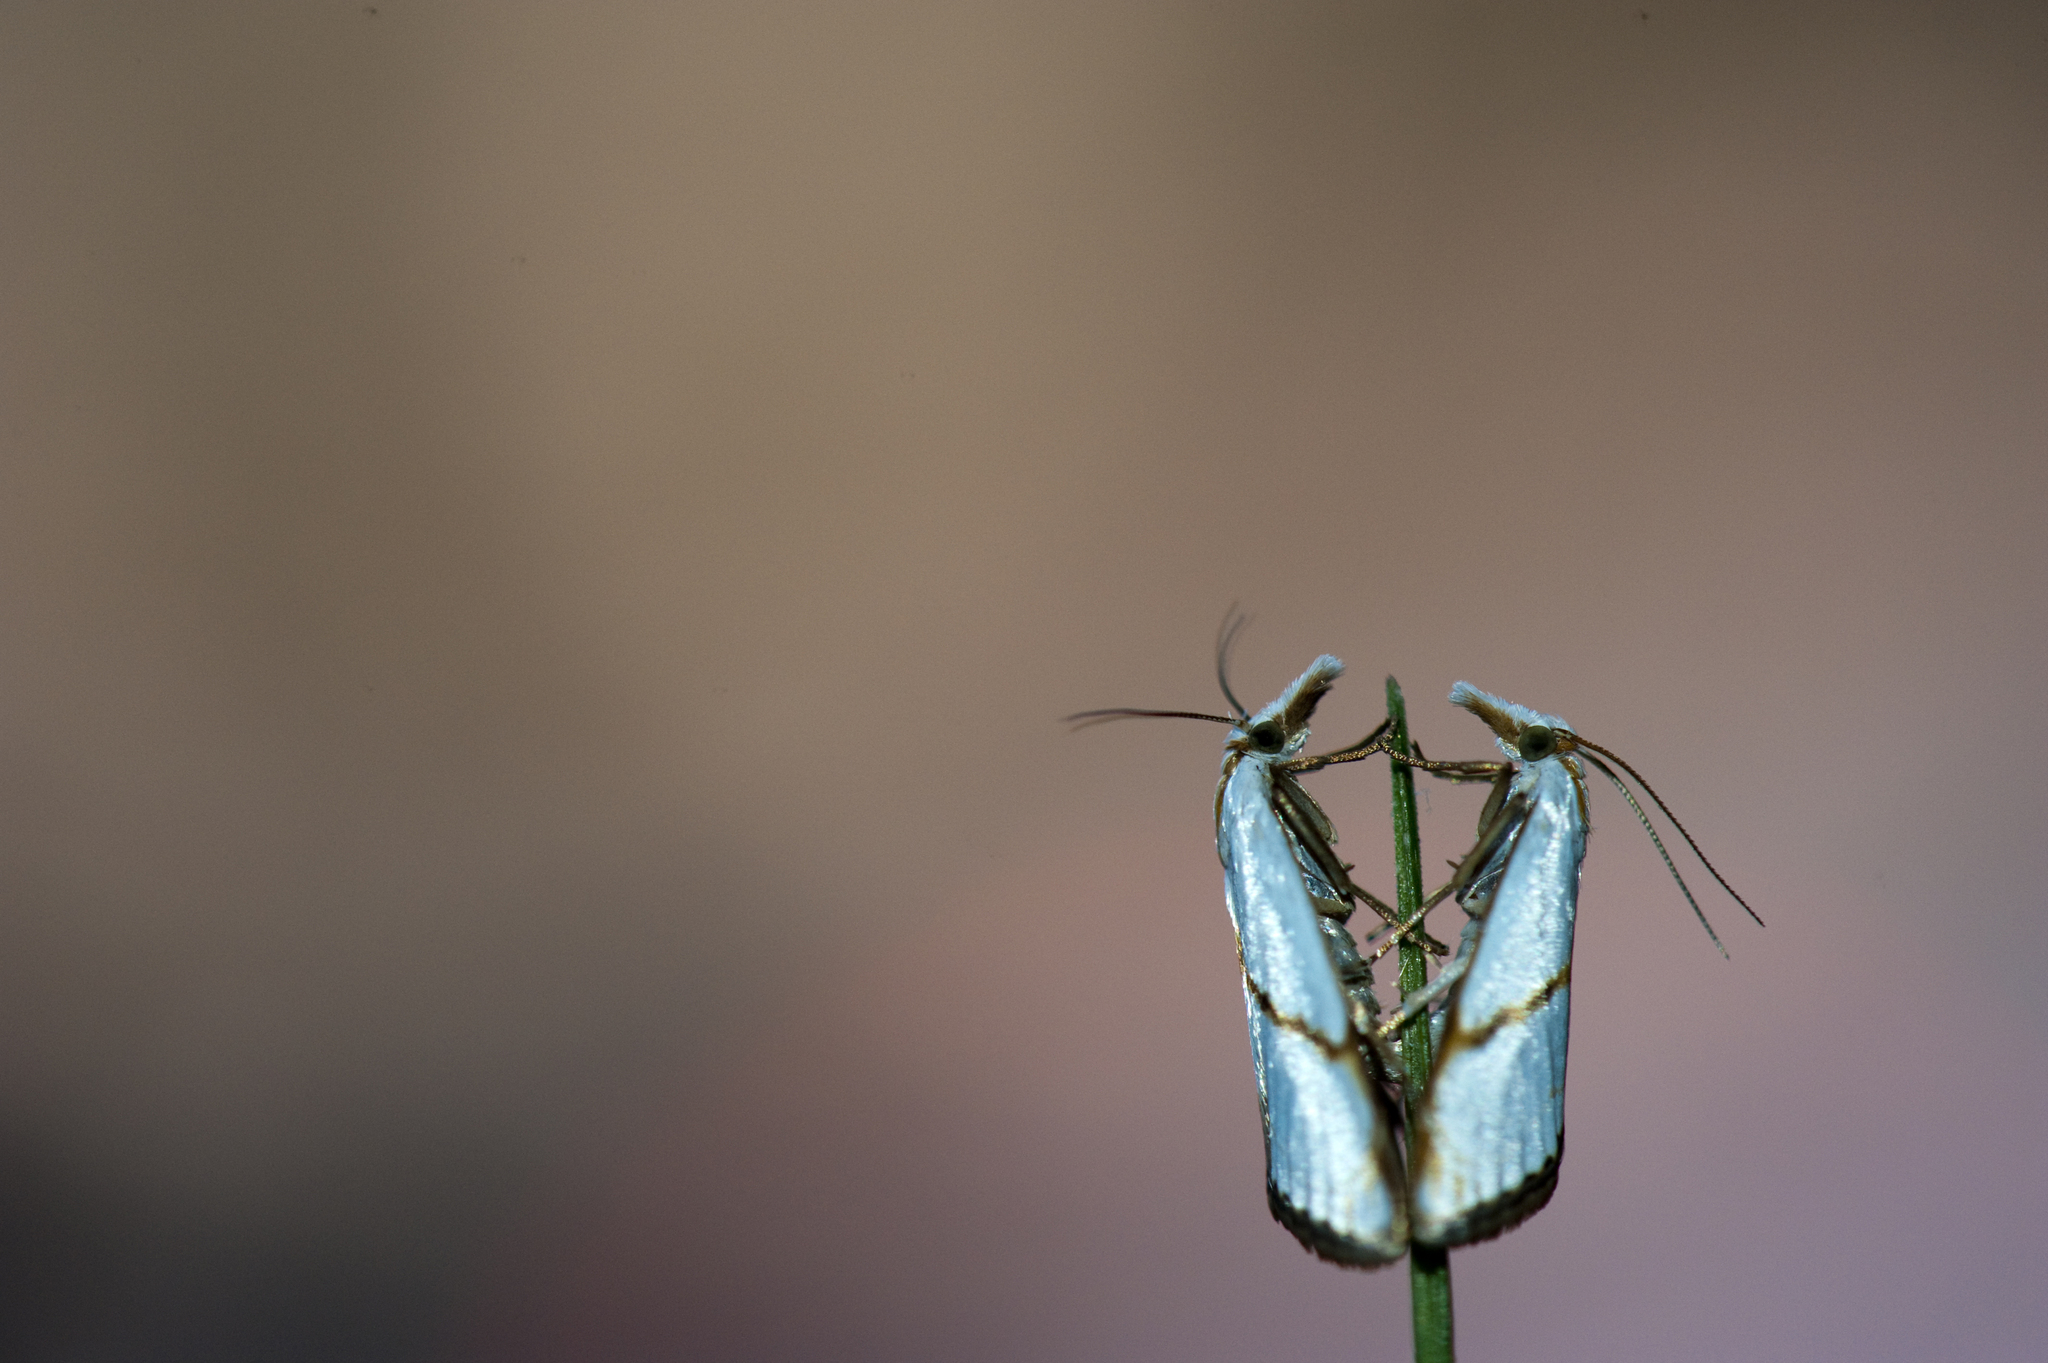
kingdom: Animalia
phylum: Arthropoda
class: Insecta
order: Lepidoptera
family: Crambidae
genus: Pseudargyria
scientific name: Pseudargyria interruptella
